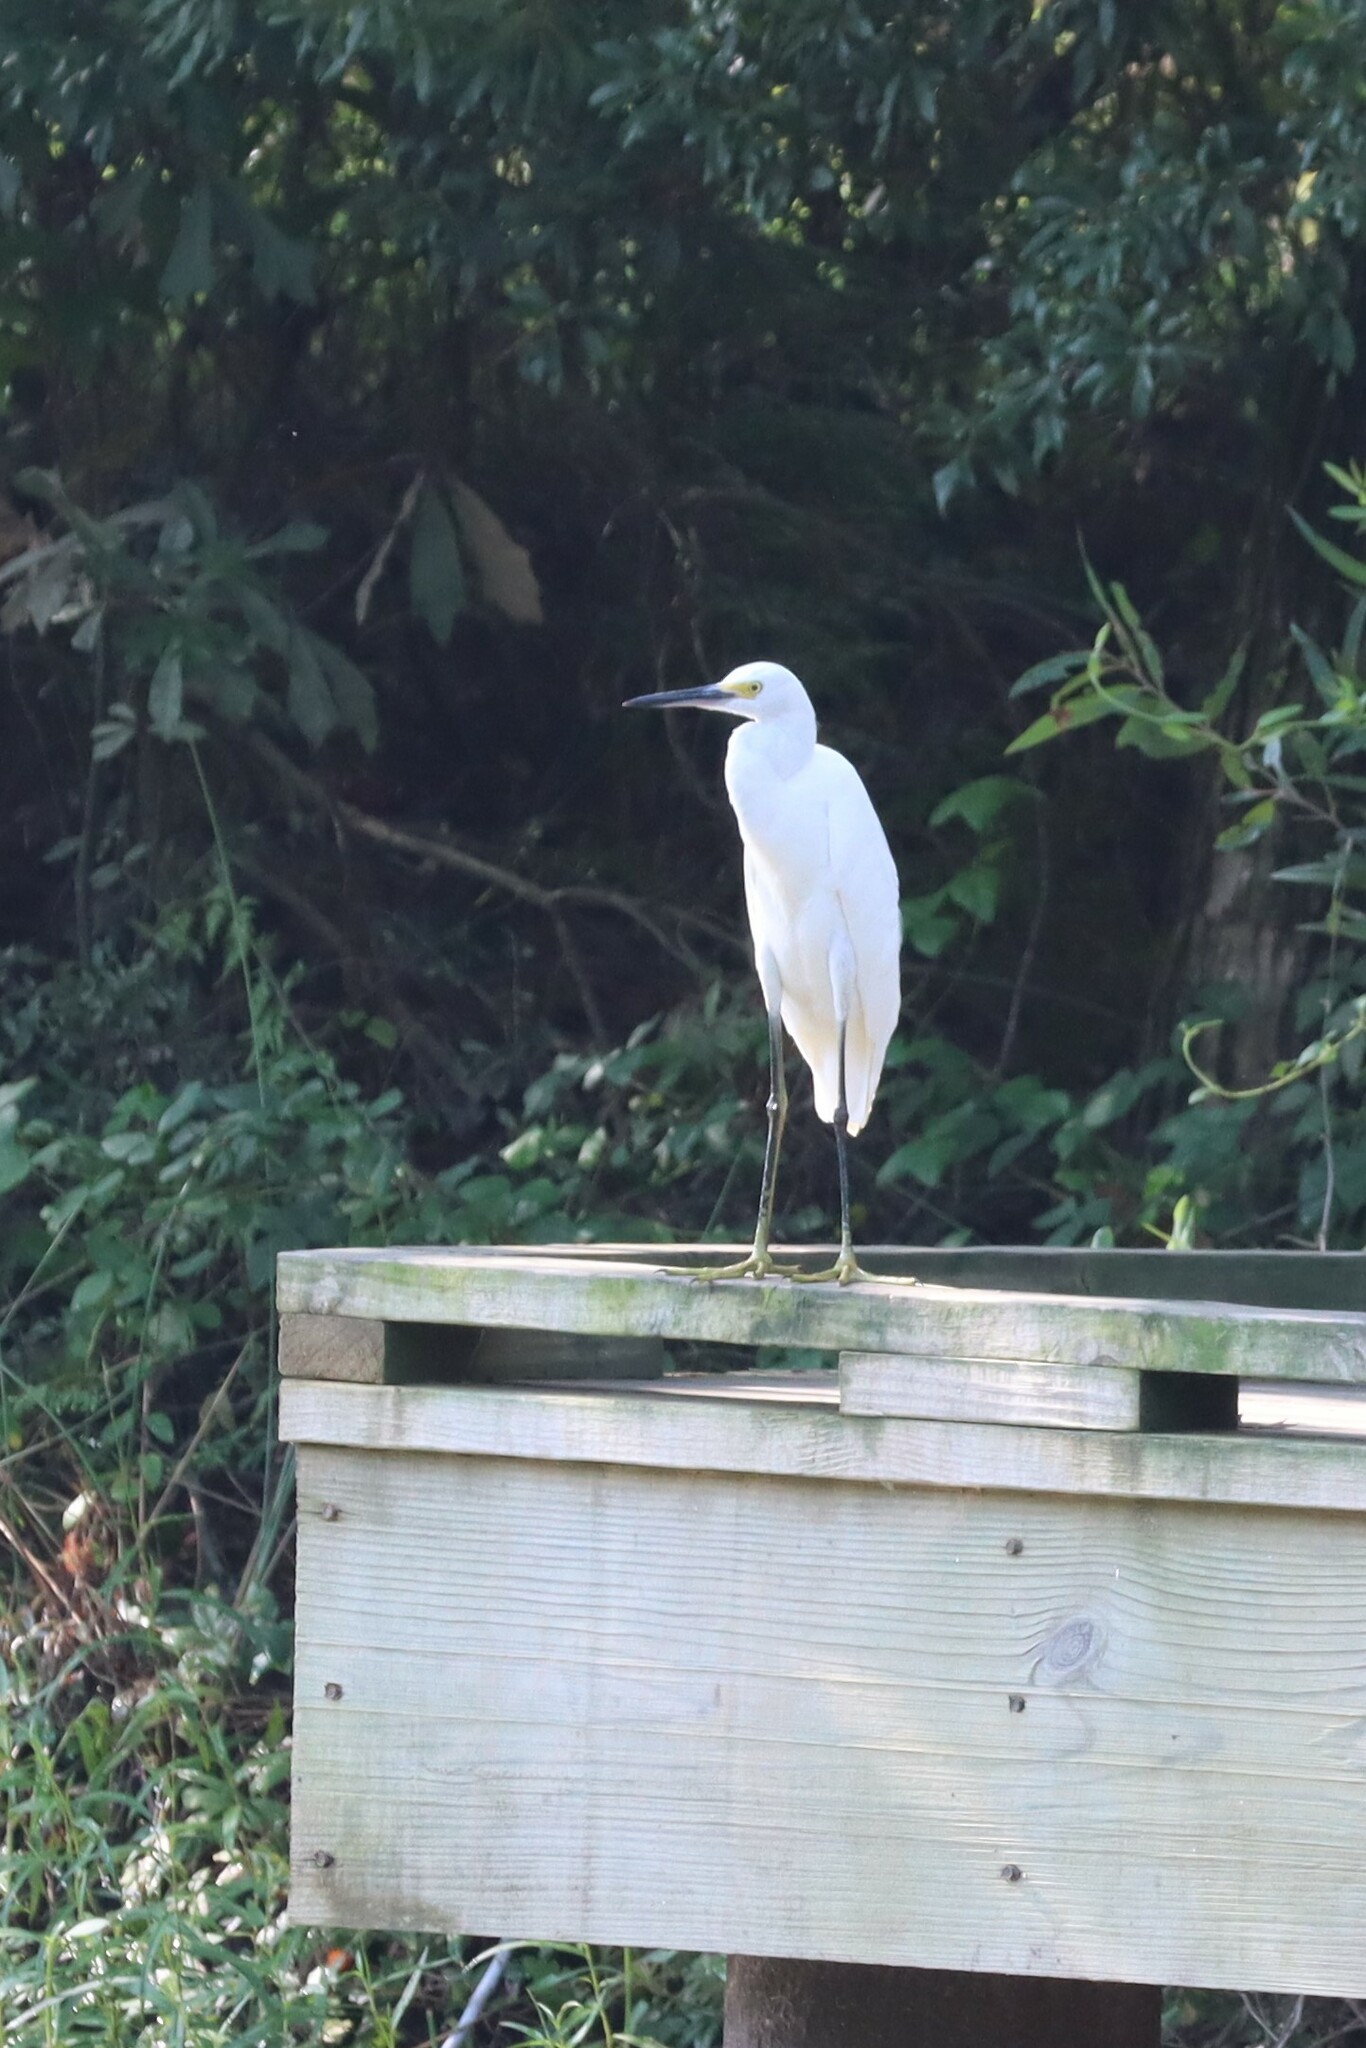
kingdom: Animalia
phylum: Chordata
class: Aves
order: Pelecaniformes
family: Ardeidae
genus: Egretta
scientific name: Egretta thula
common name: Snowy egret
